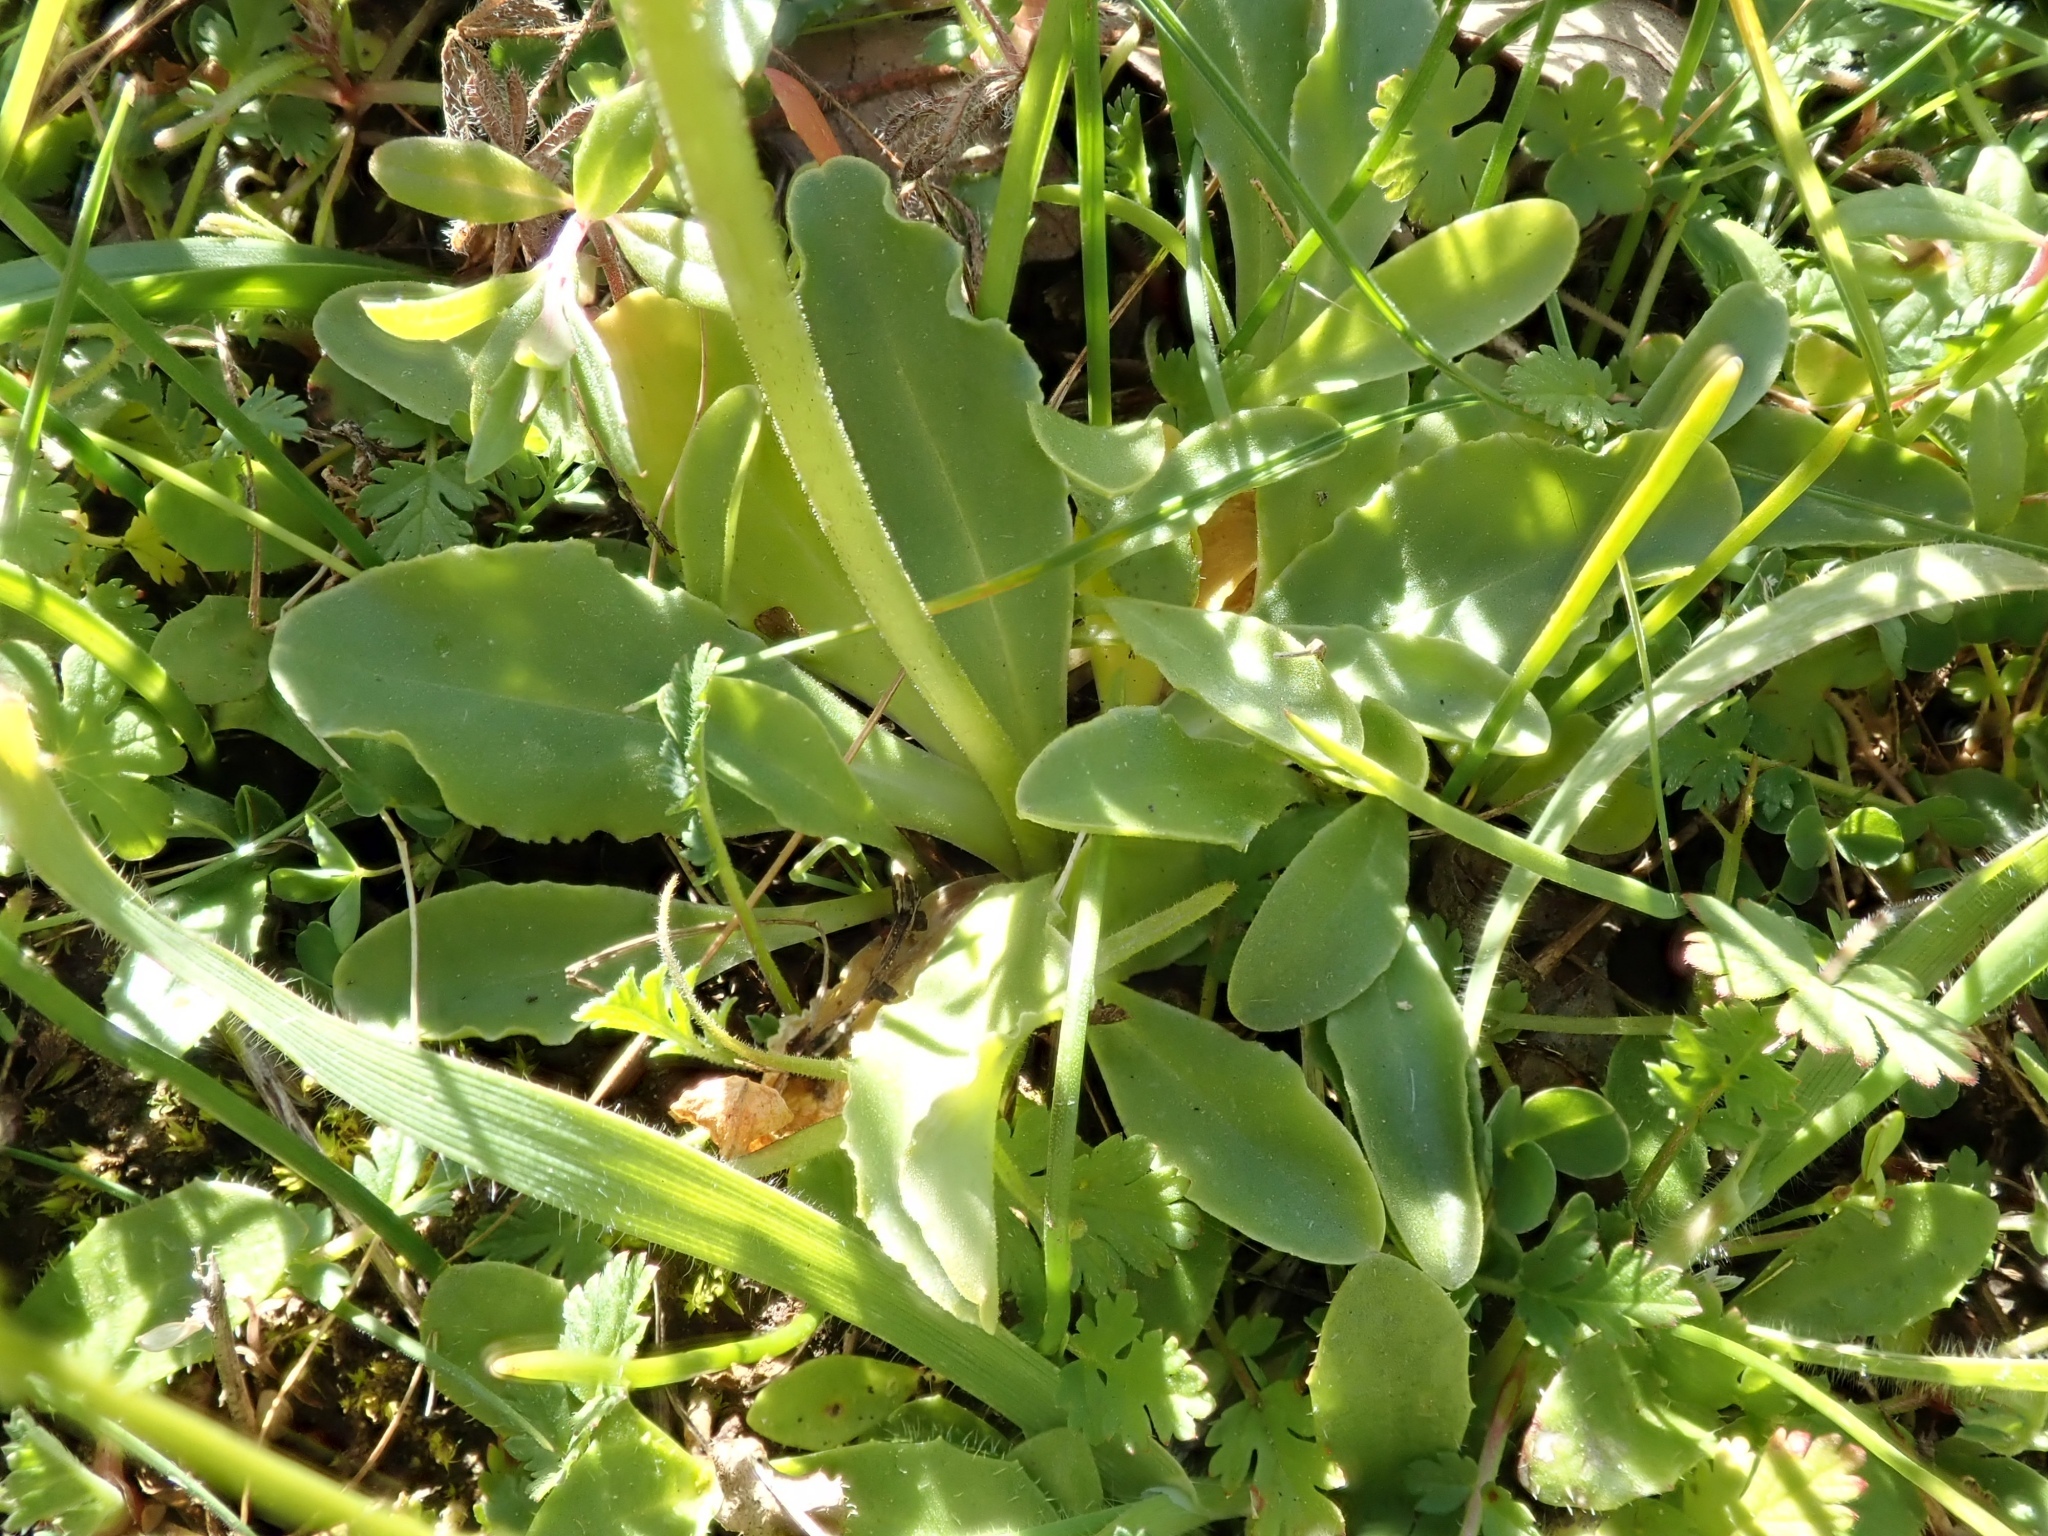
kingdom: Plantae
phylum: Tracheophyta
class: Magnoliopsida
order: Ericales
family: Primulaceae
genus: Dodecatheon
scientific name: Dodecatheon clevelandii
